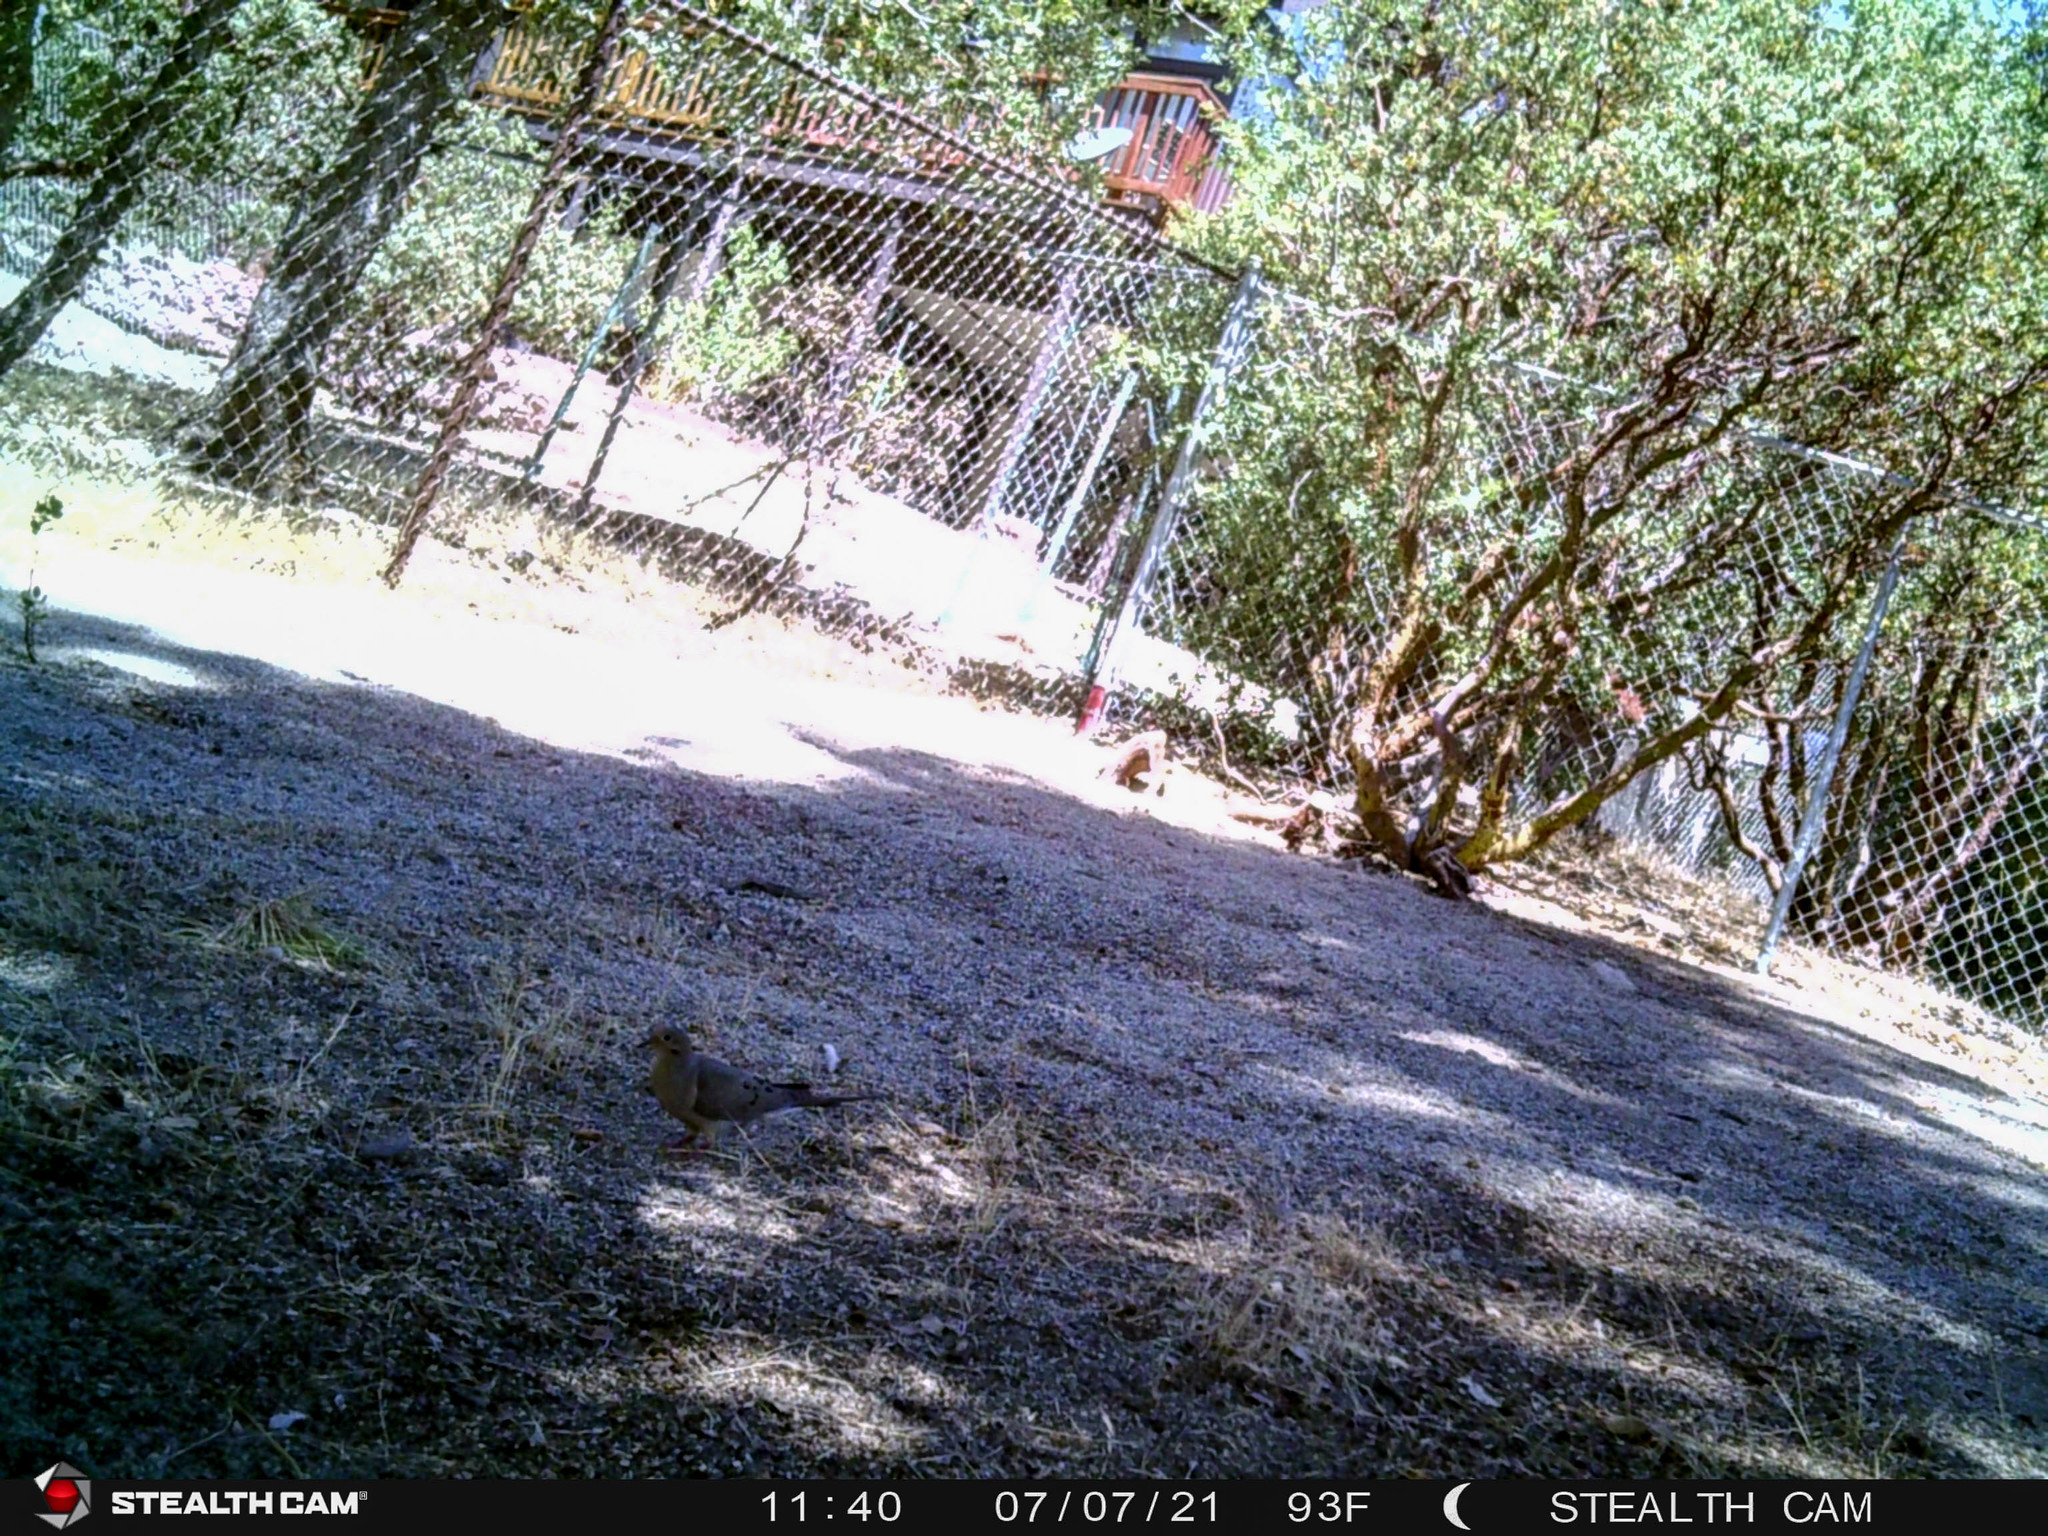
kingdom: Animalia
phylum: Chordata
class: Aves
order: Columbiformes
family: Columbidae
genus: Zenaida
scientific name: Zenaida macroura
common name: Mourning dove
